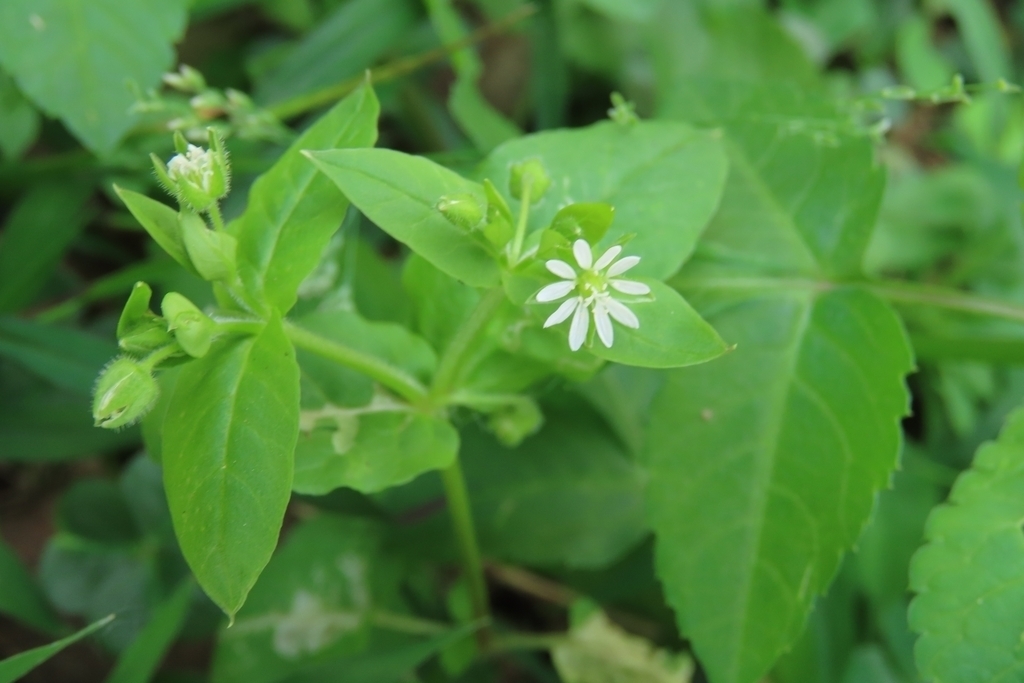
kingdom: Plantae
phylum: Tracheophyta
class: Magnoliopsida
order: Caryophyllales
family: Caryophyllaceae
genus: Stellaria
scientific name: Stellaria aquatica
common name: Water chickweed
